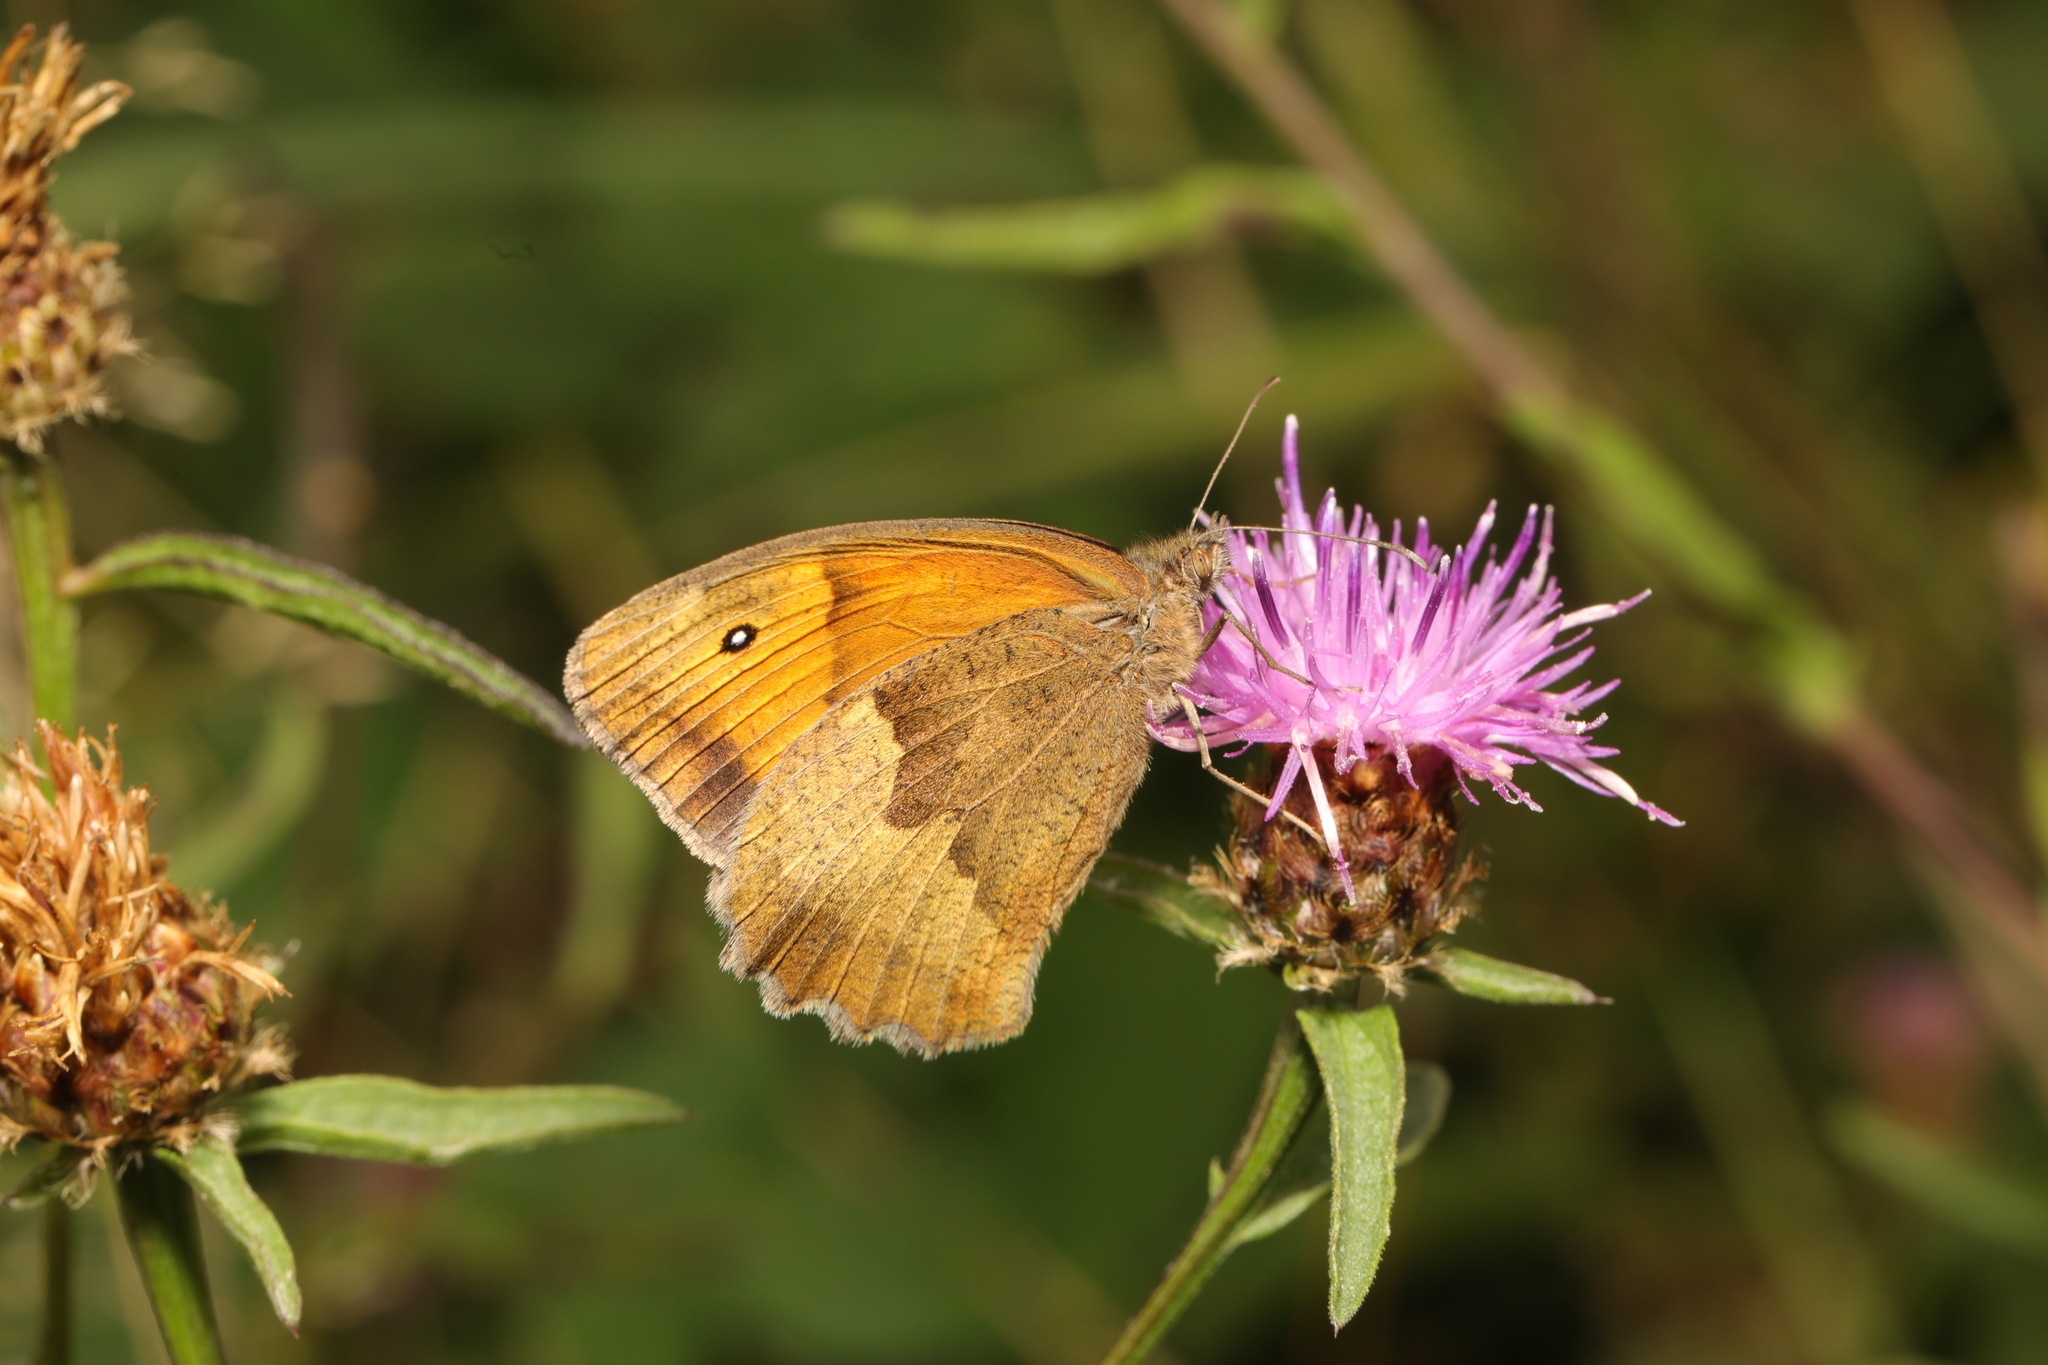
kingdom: Animalia
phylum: Arthropoda
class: Insecta
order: Lepidoptera
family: Nymphalidae
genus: Maniola
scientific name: Maniola jurtina
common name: Meadow brown
